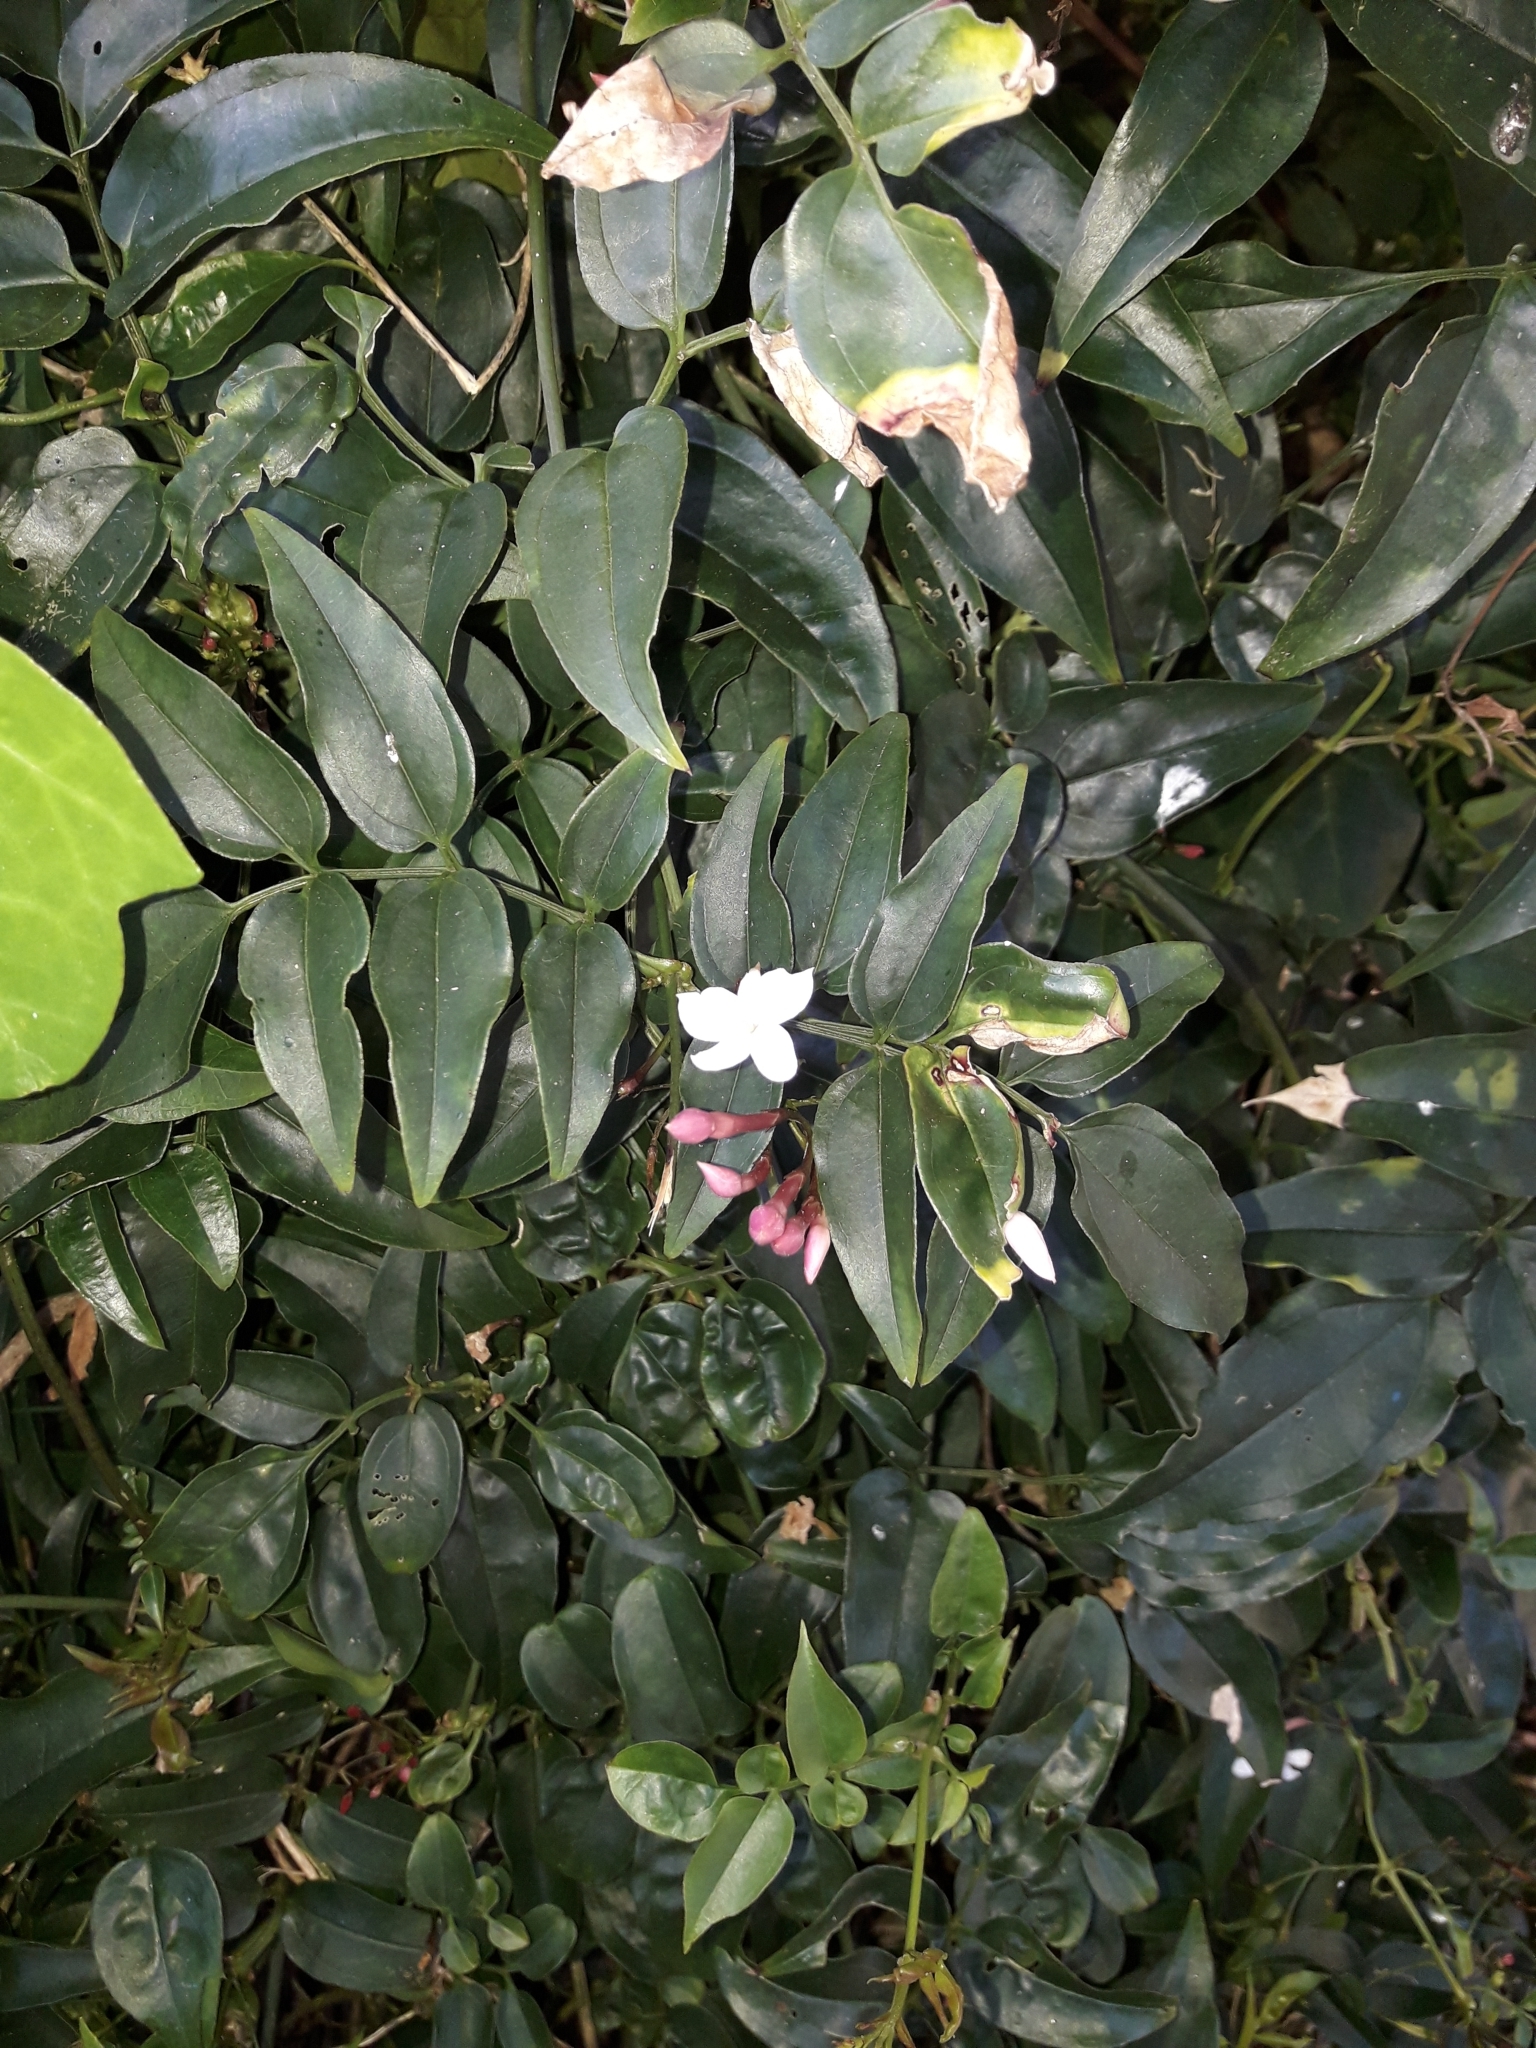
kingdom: Plantae
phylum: Tracheophyta
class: Magnoliopsida
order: Lamiales
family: Oleaceae
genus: Jasminum
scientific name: Jasminum polyanthum
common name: Pink jasmine
